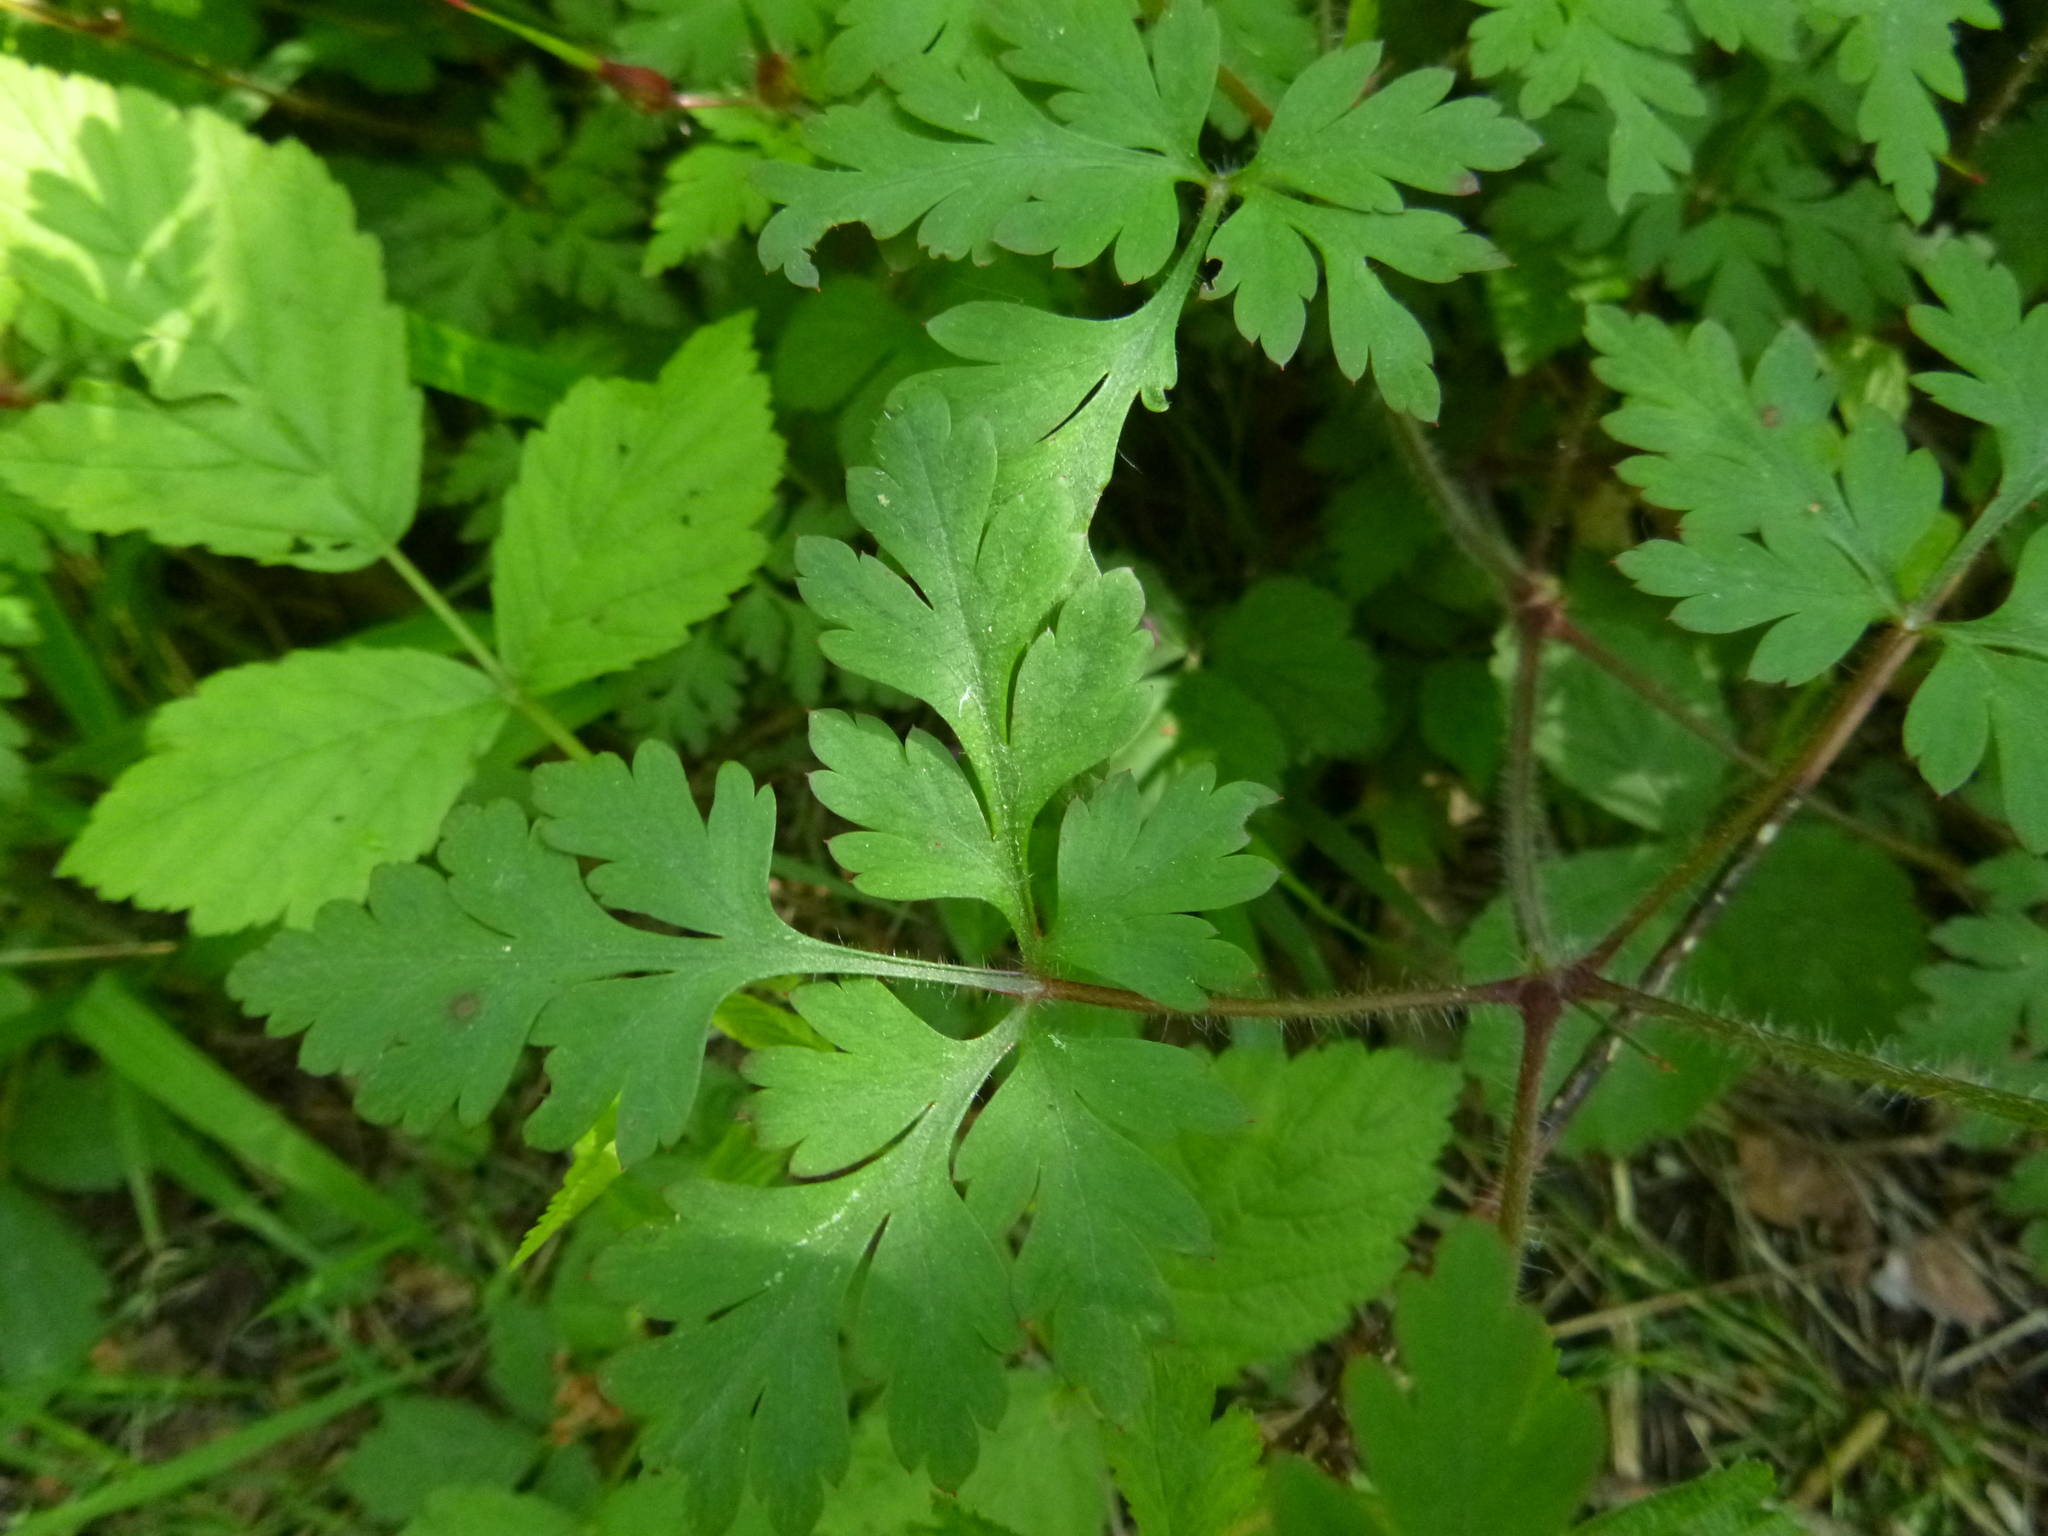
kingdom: Plantae
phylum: Tracheophyta
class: Magnoliopsida
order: Geraniales
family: Geraniaceae
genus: Geranium
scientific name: Geranium robertianum
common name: Herb-robert
